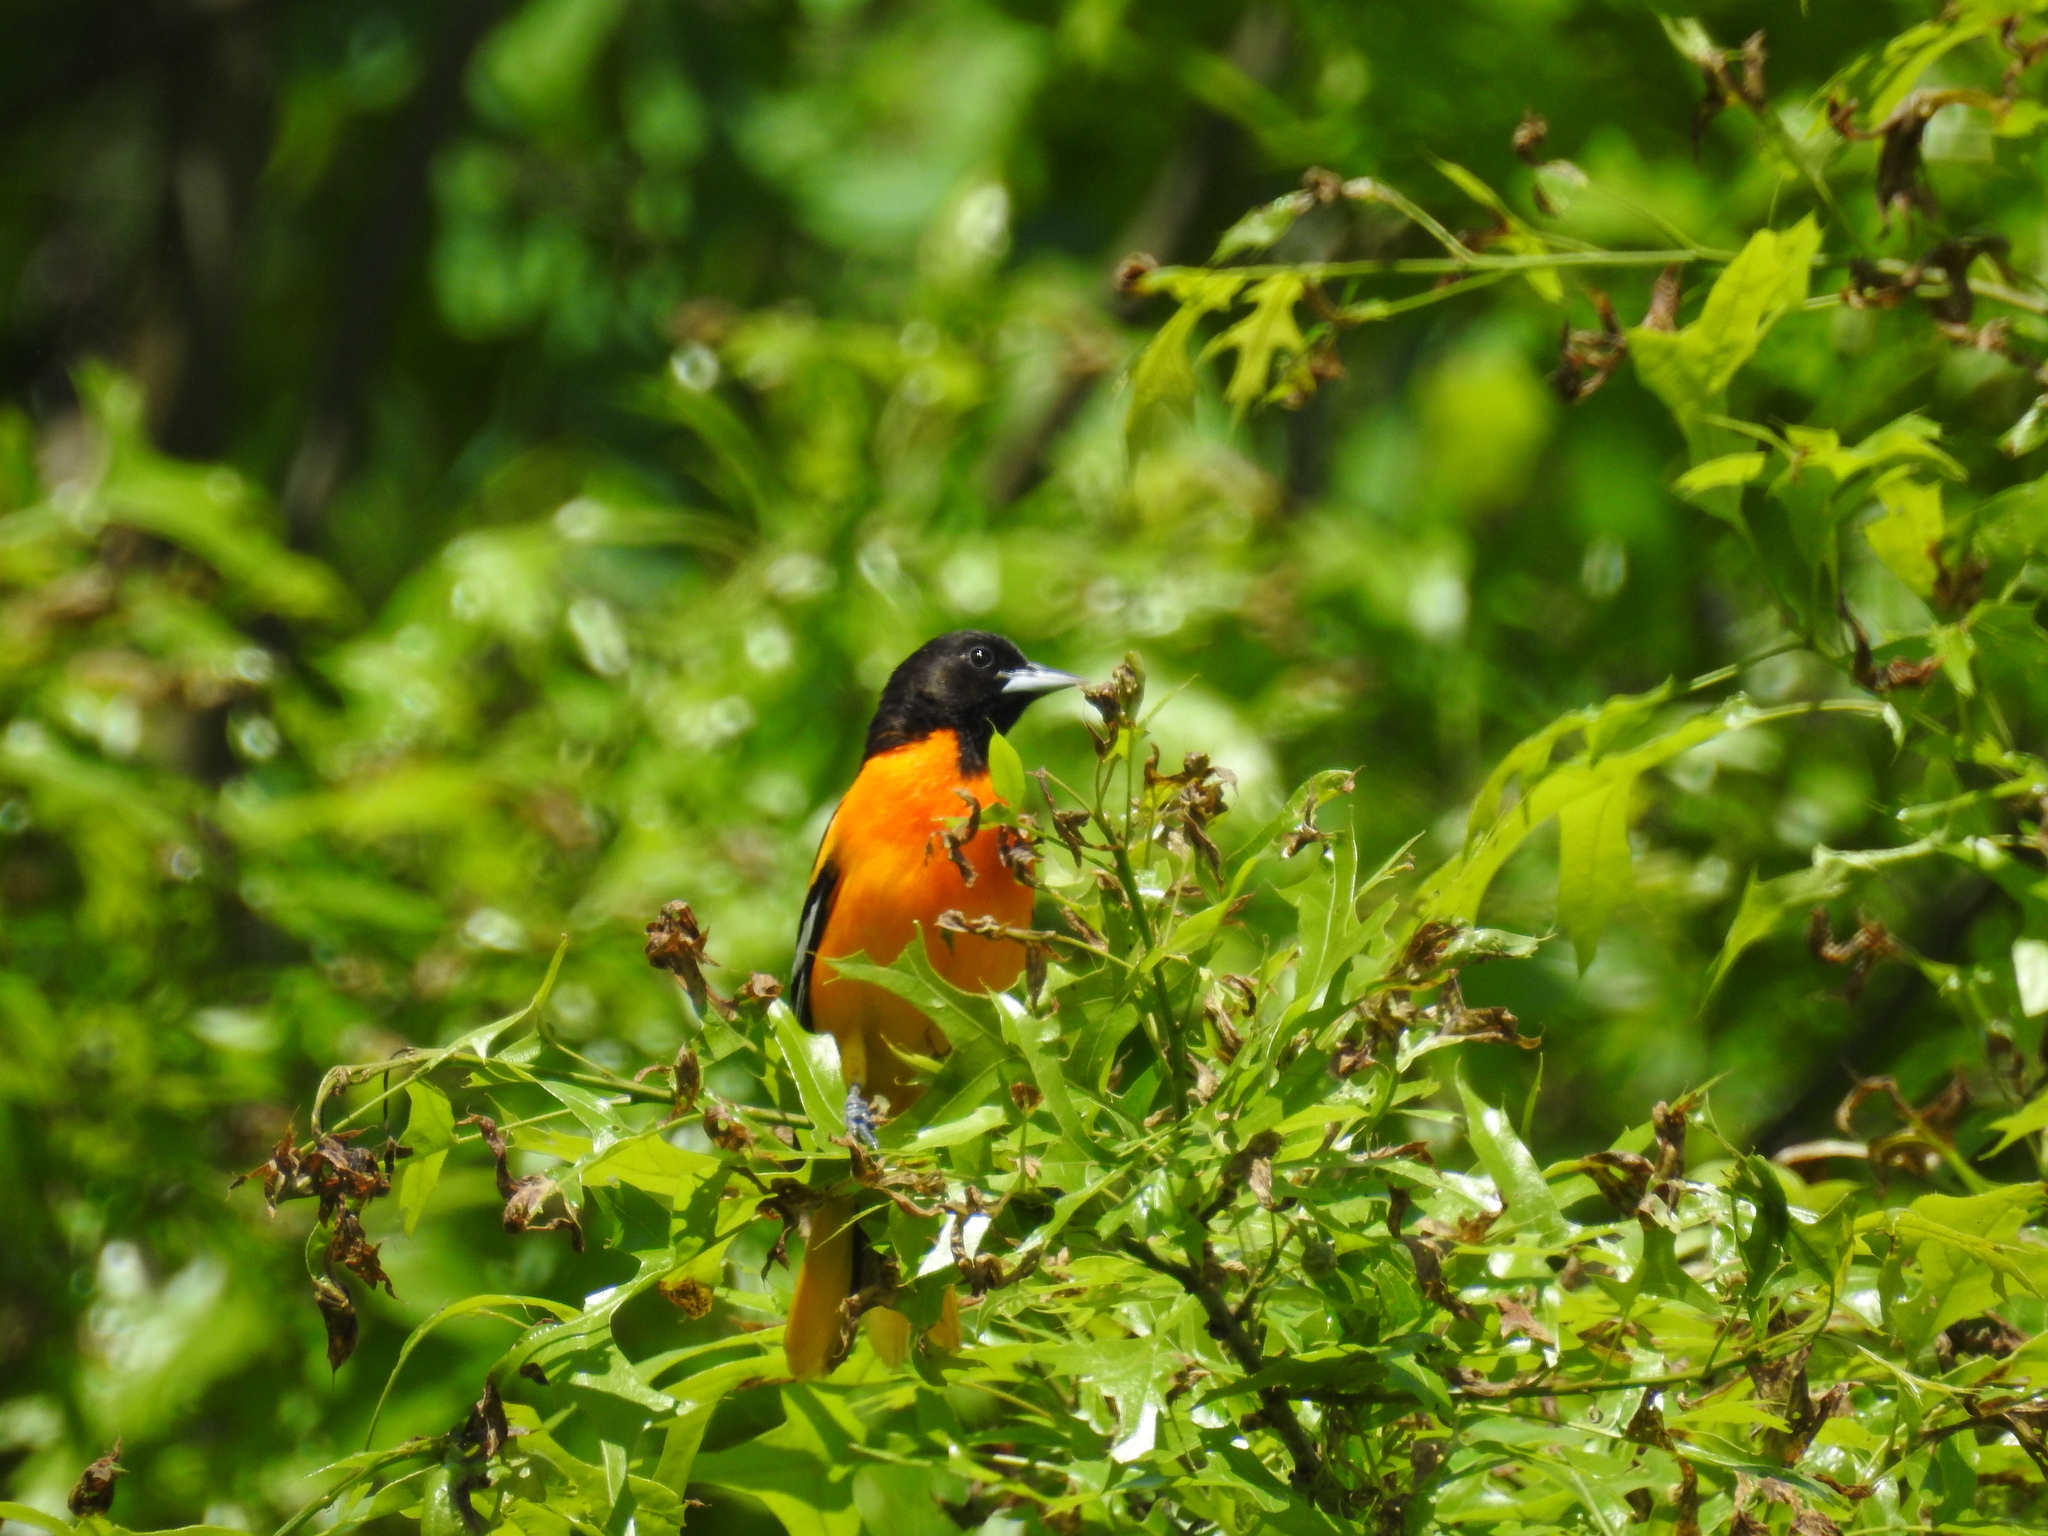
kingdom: Animalia
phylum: Chordata
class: Aves
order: Passeriformes
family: Icteridae
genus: Icterus
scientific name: Icterus galbula
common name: Baltimore oriole
